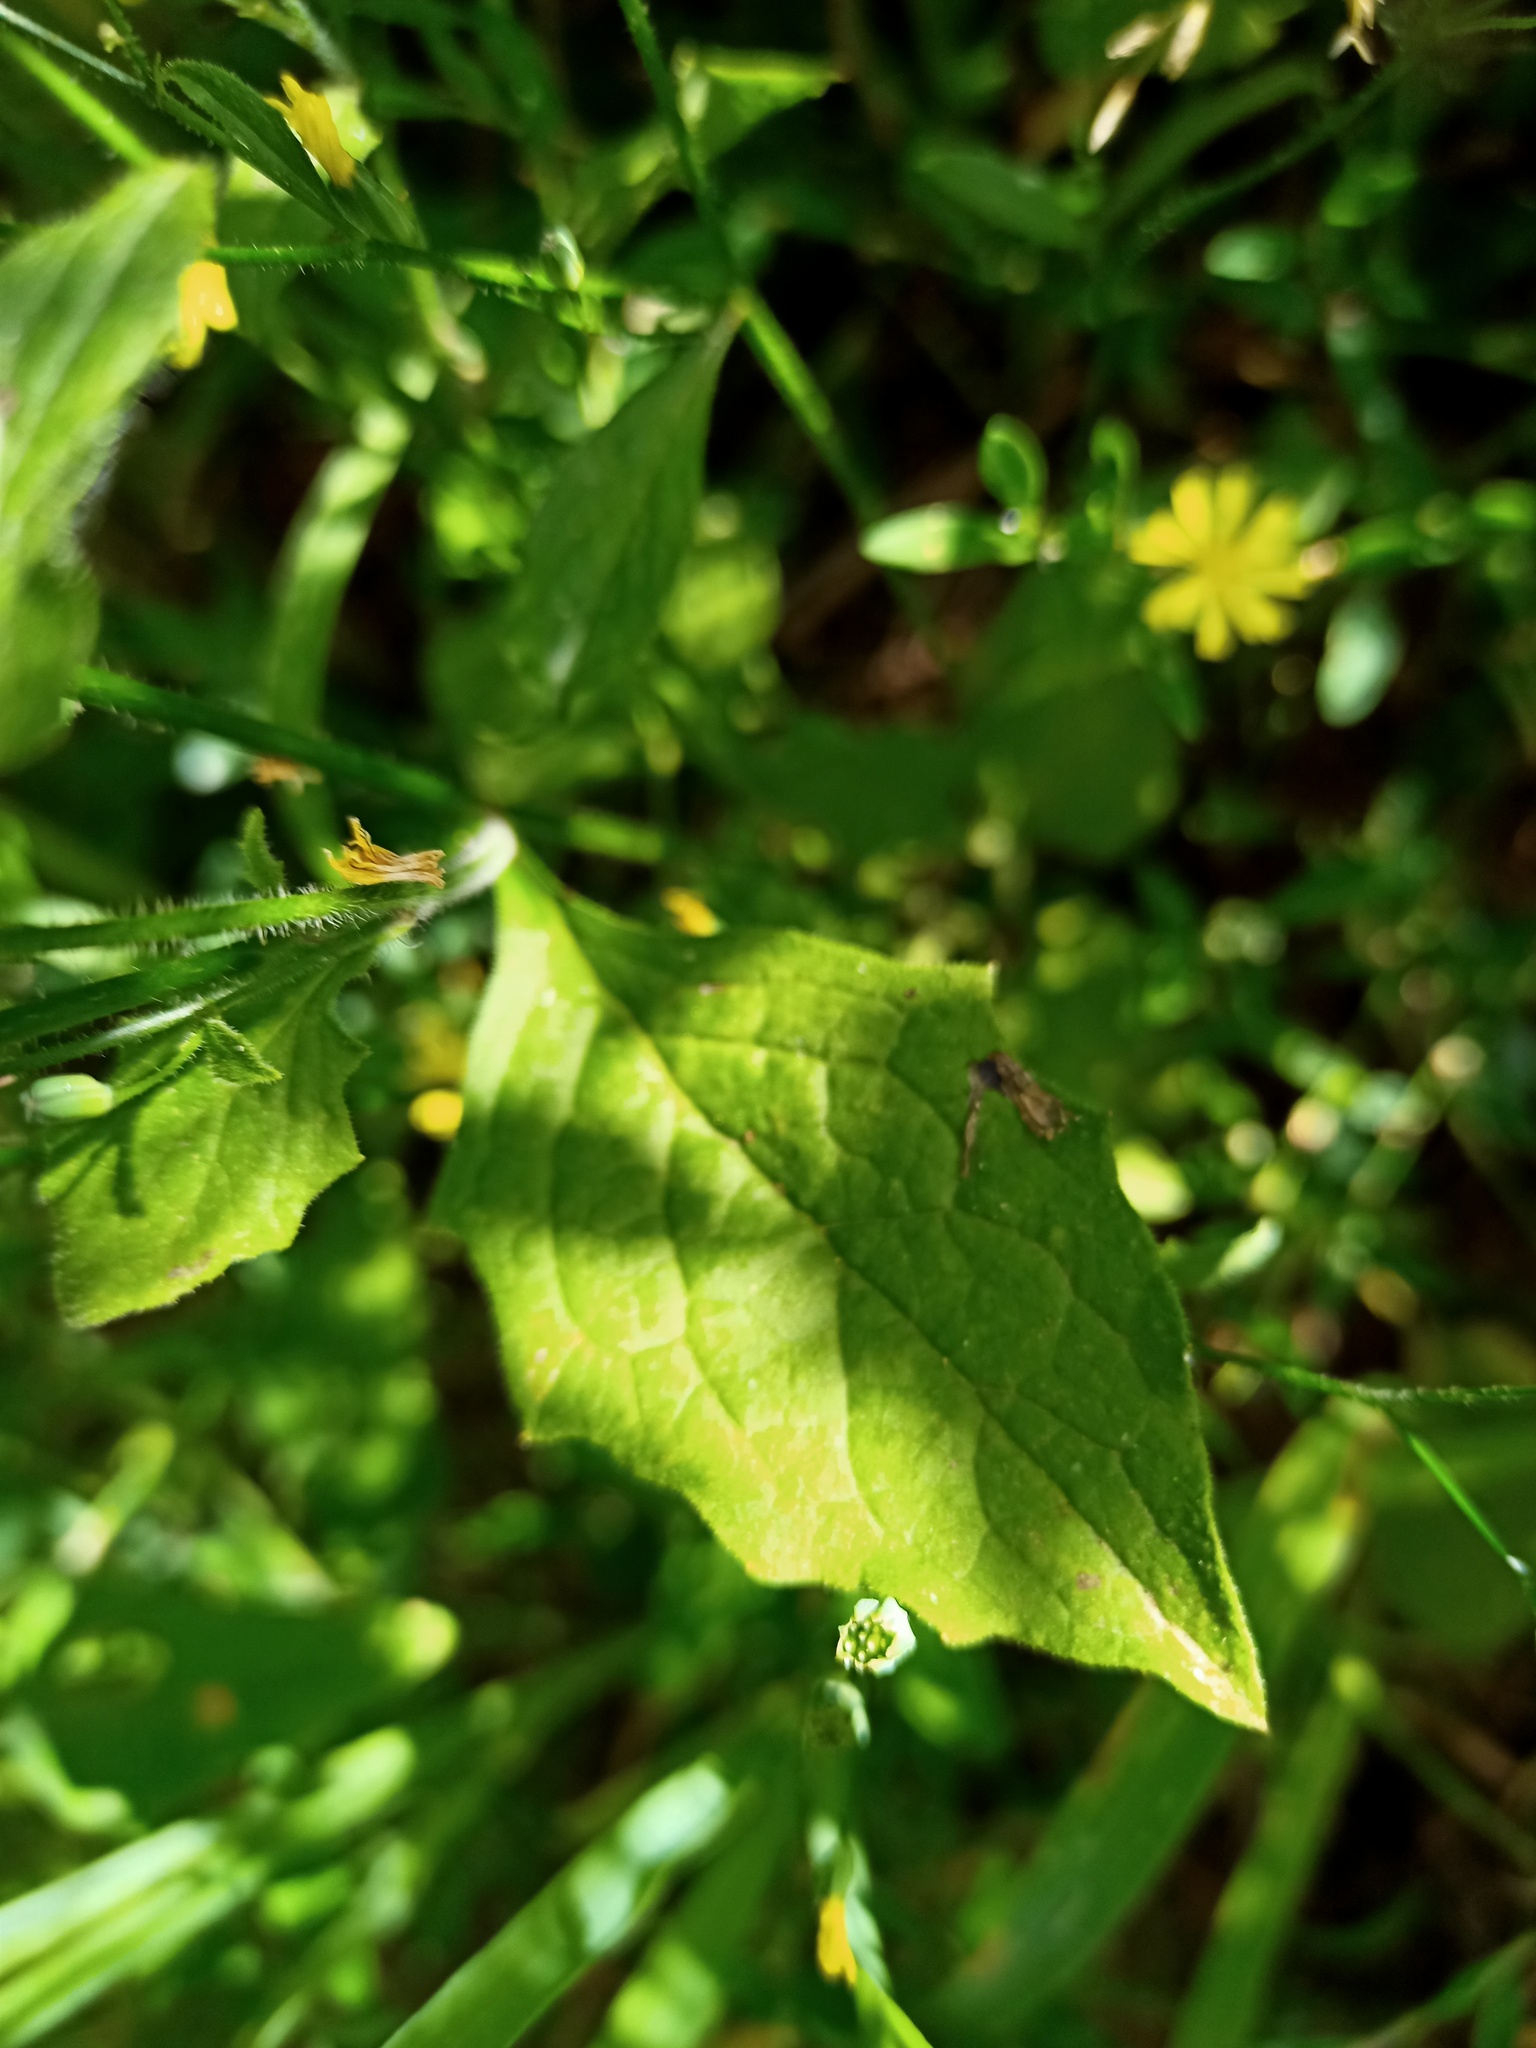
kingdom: Plantae
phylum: Tracheophyta
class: Magnoliopsida
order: Asterales
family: Asteraceae
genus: Lapsana
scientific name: Lapsana communis
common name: Nipplewort
